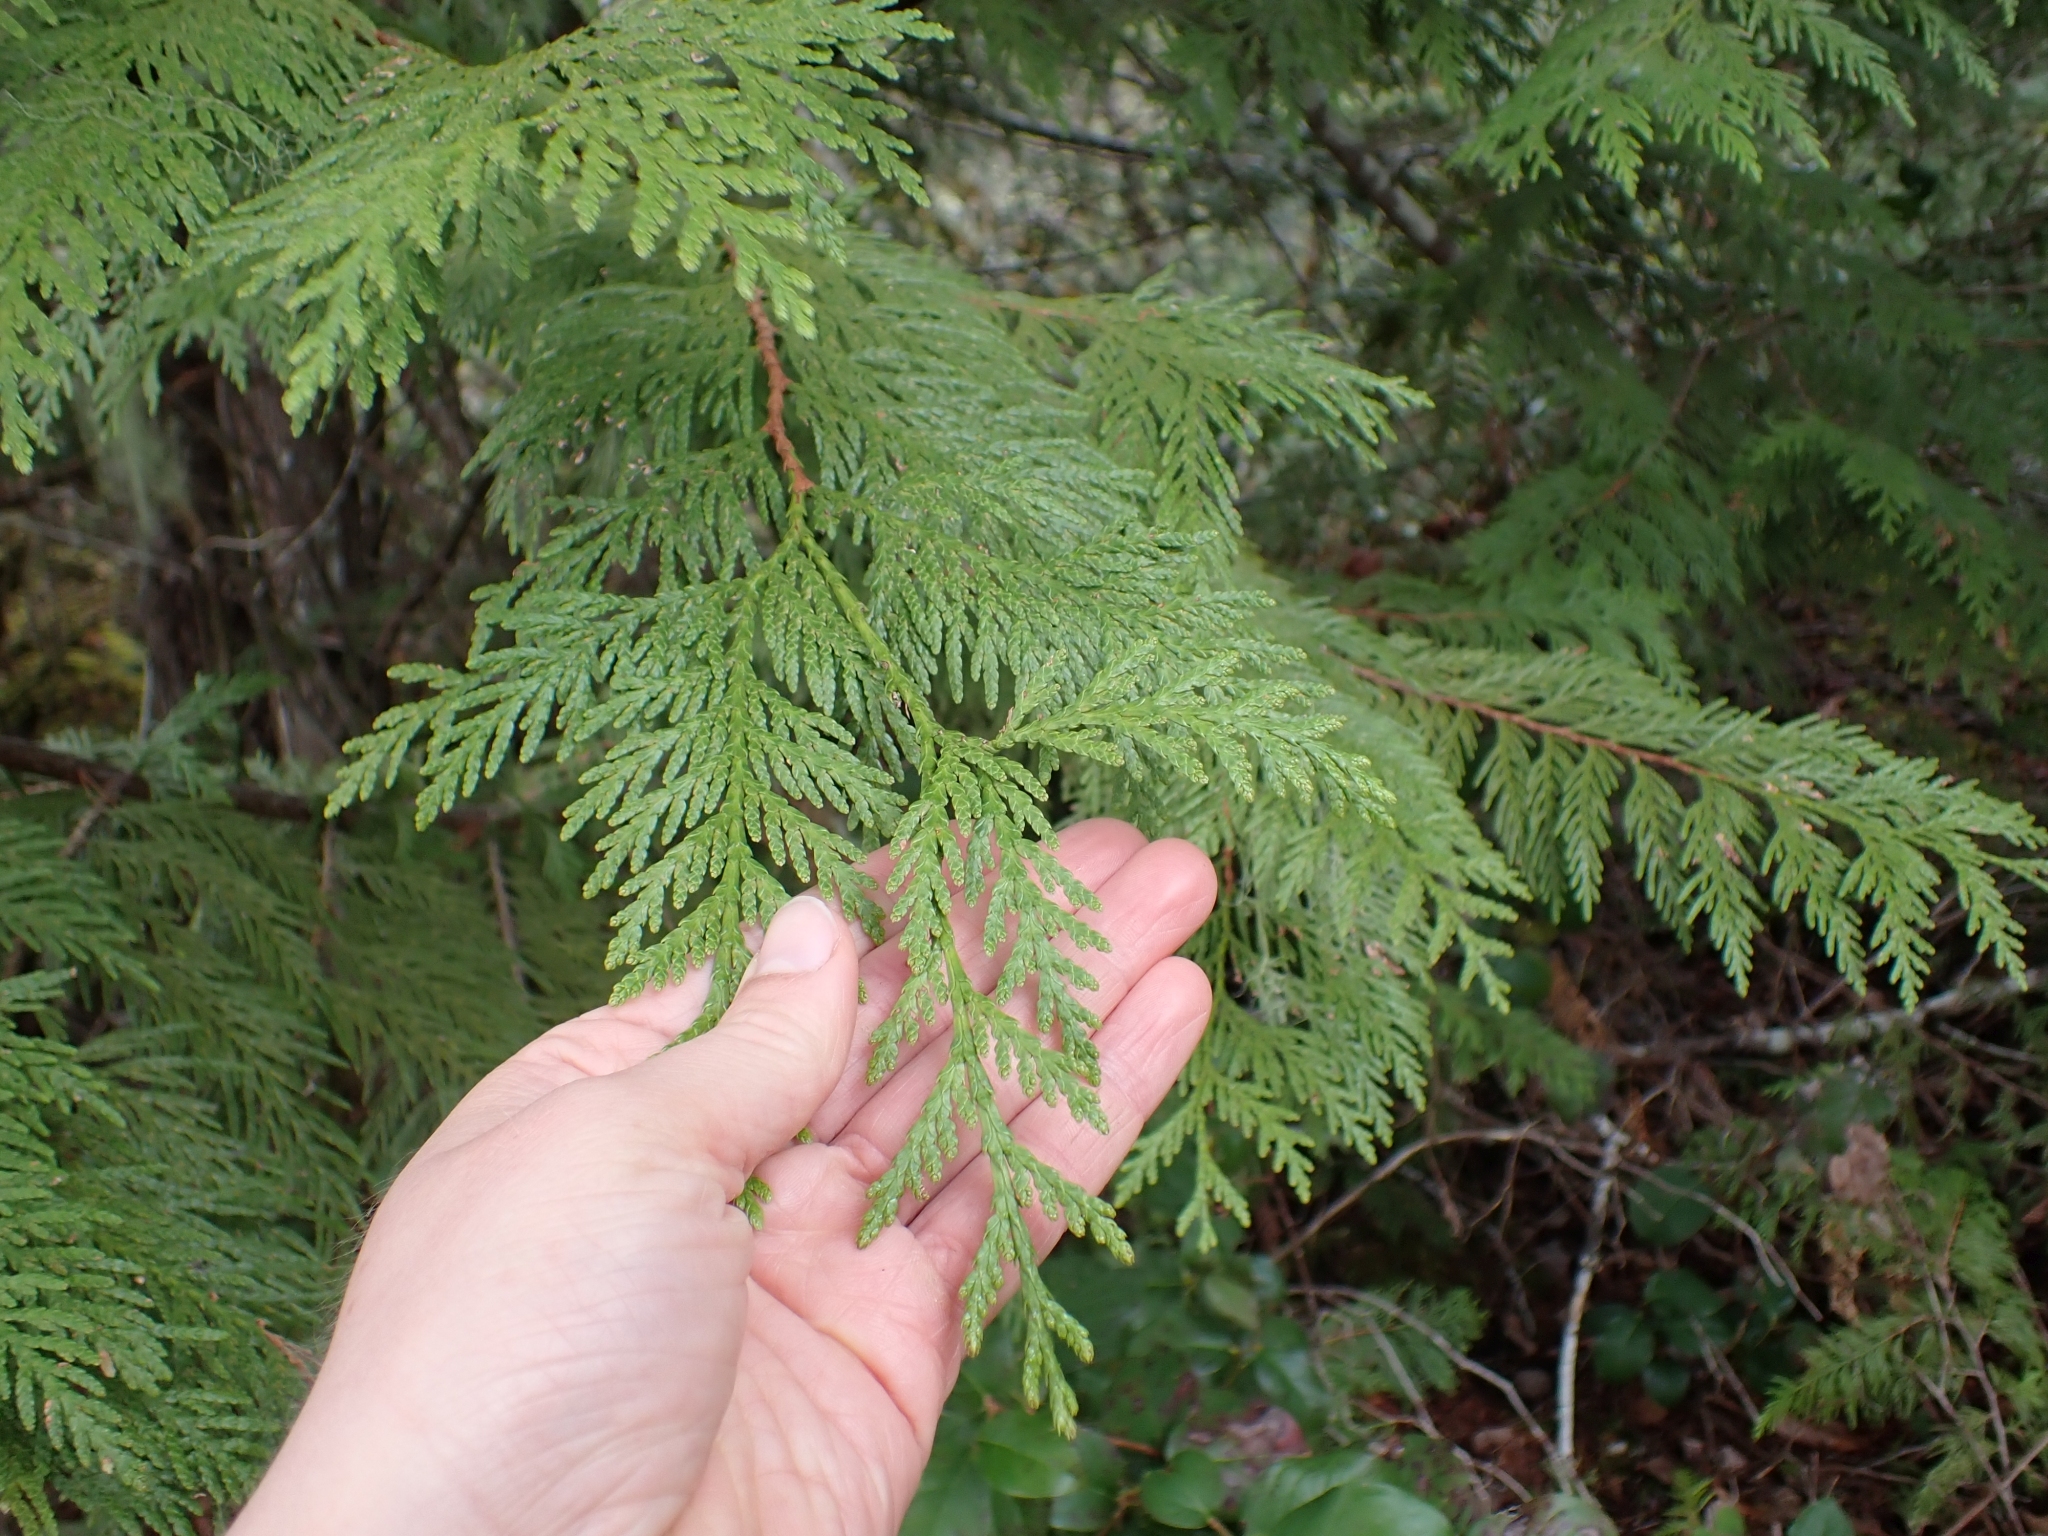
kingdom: Plantae
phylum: Tracheophyta
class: Pinopsida
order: Pinales
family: Cupressaceae
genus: Thuja
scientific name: Thuja plicata
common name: Western red-cedar
